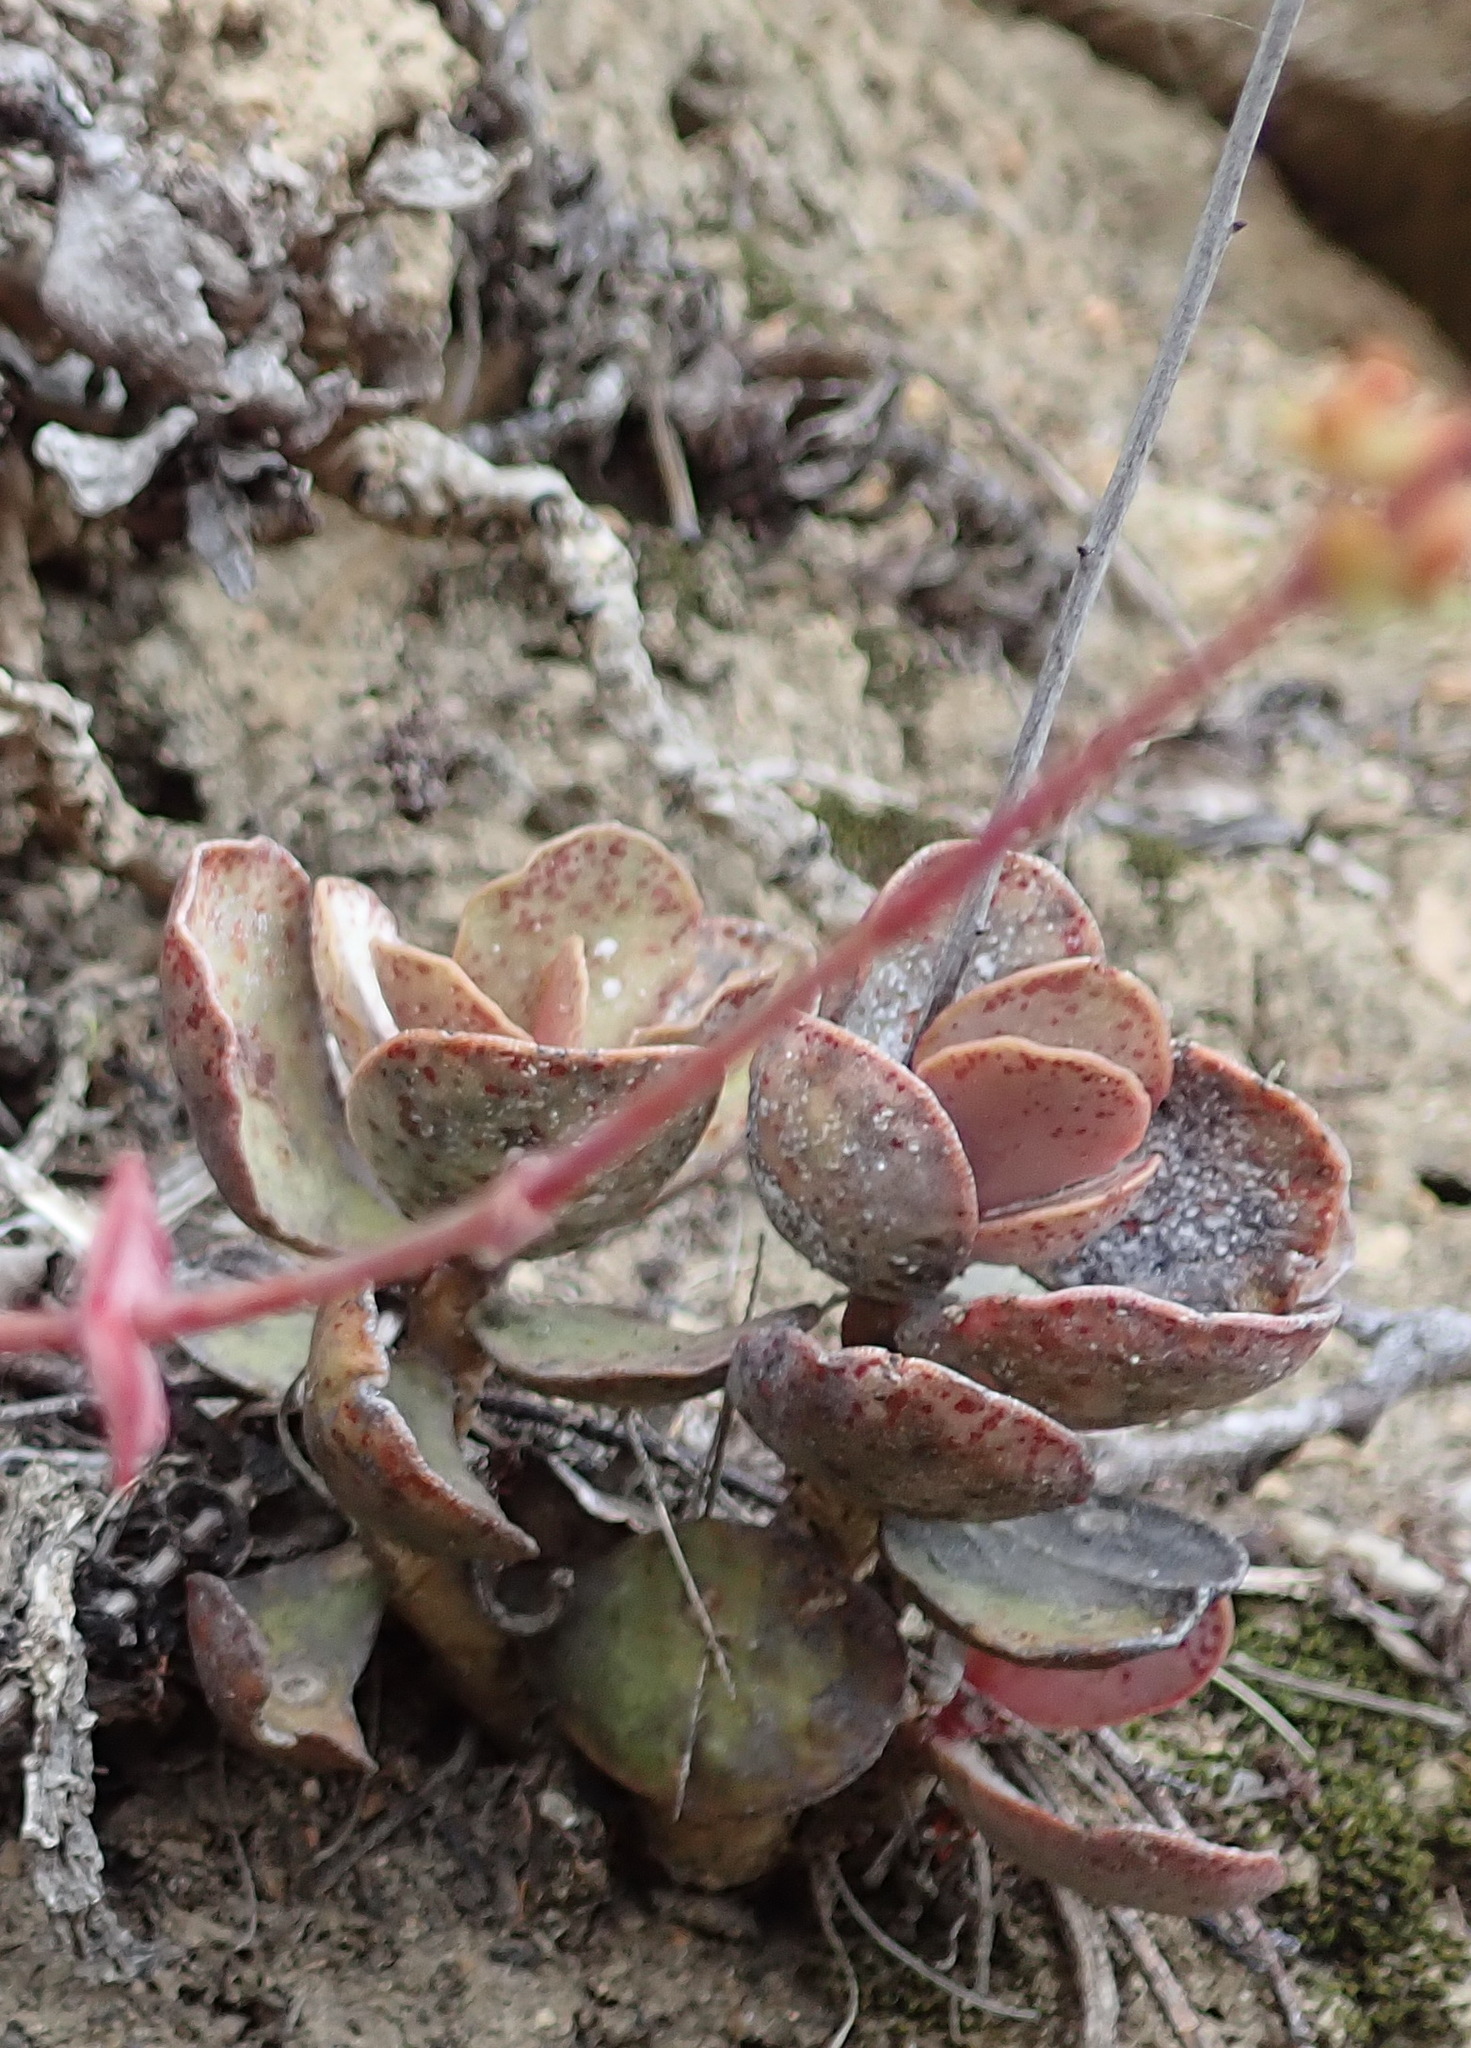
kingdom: Plantae
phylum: Tracheophyta
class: Magnoliopsida
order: Saxifragales
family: Crassulaceae
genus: Adromischus
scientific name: Adromischus maculatus
